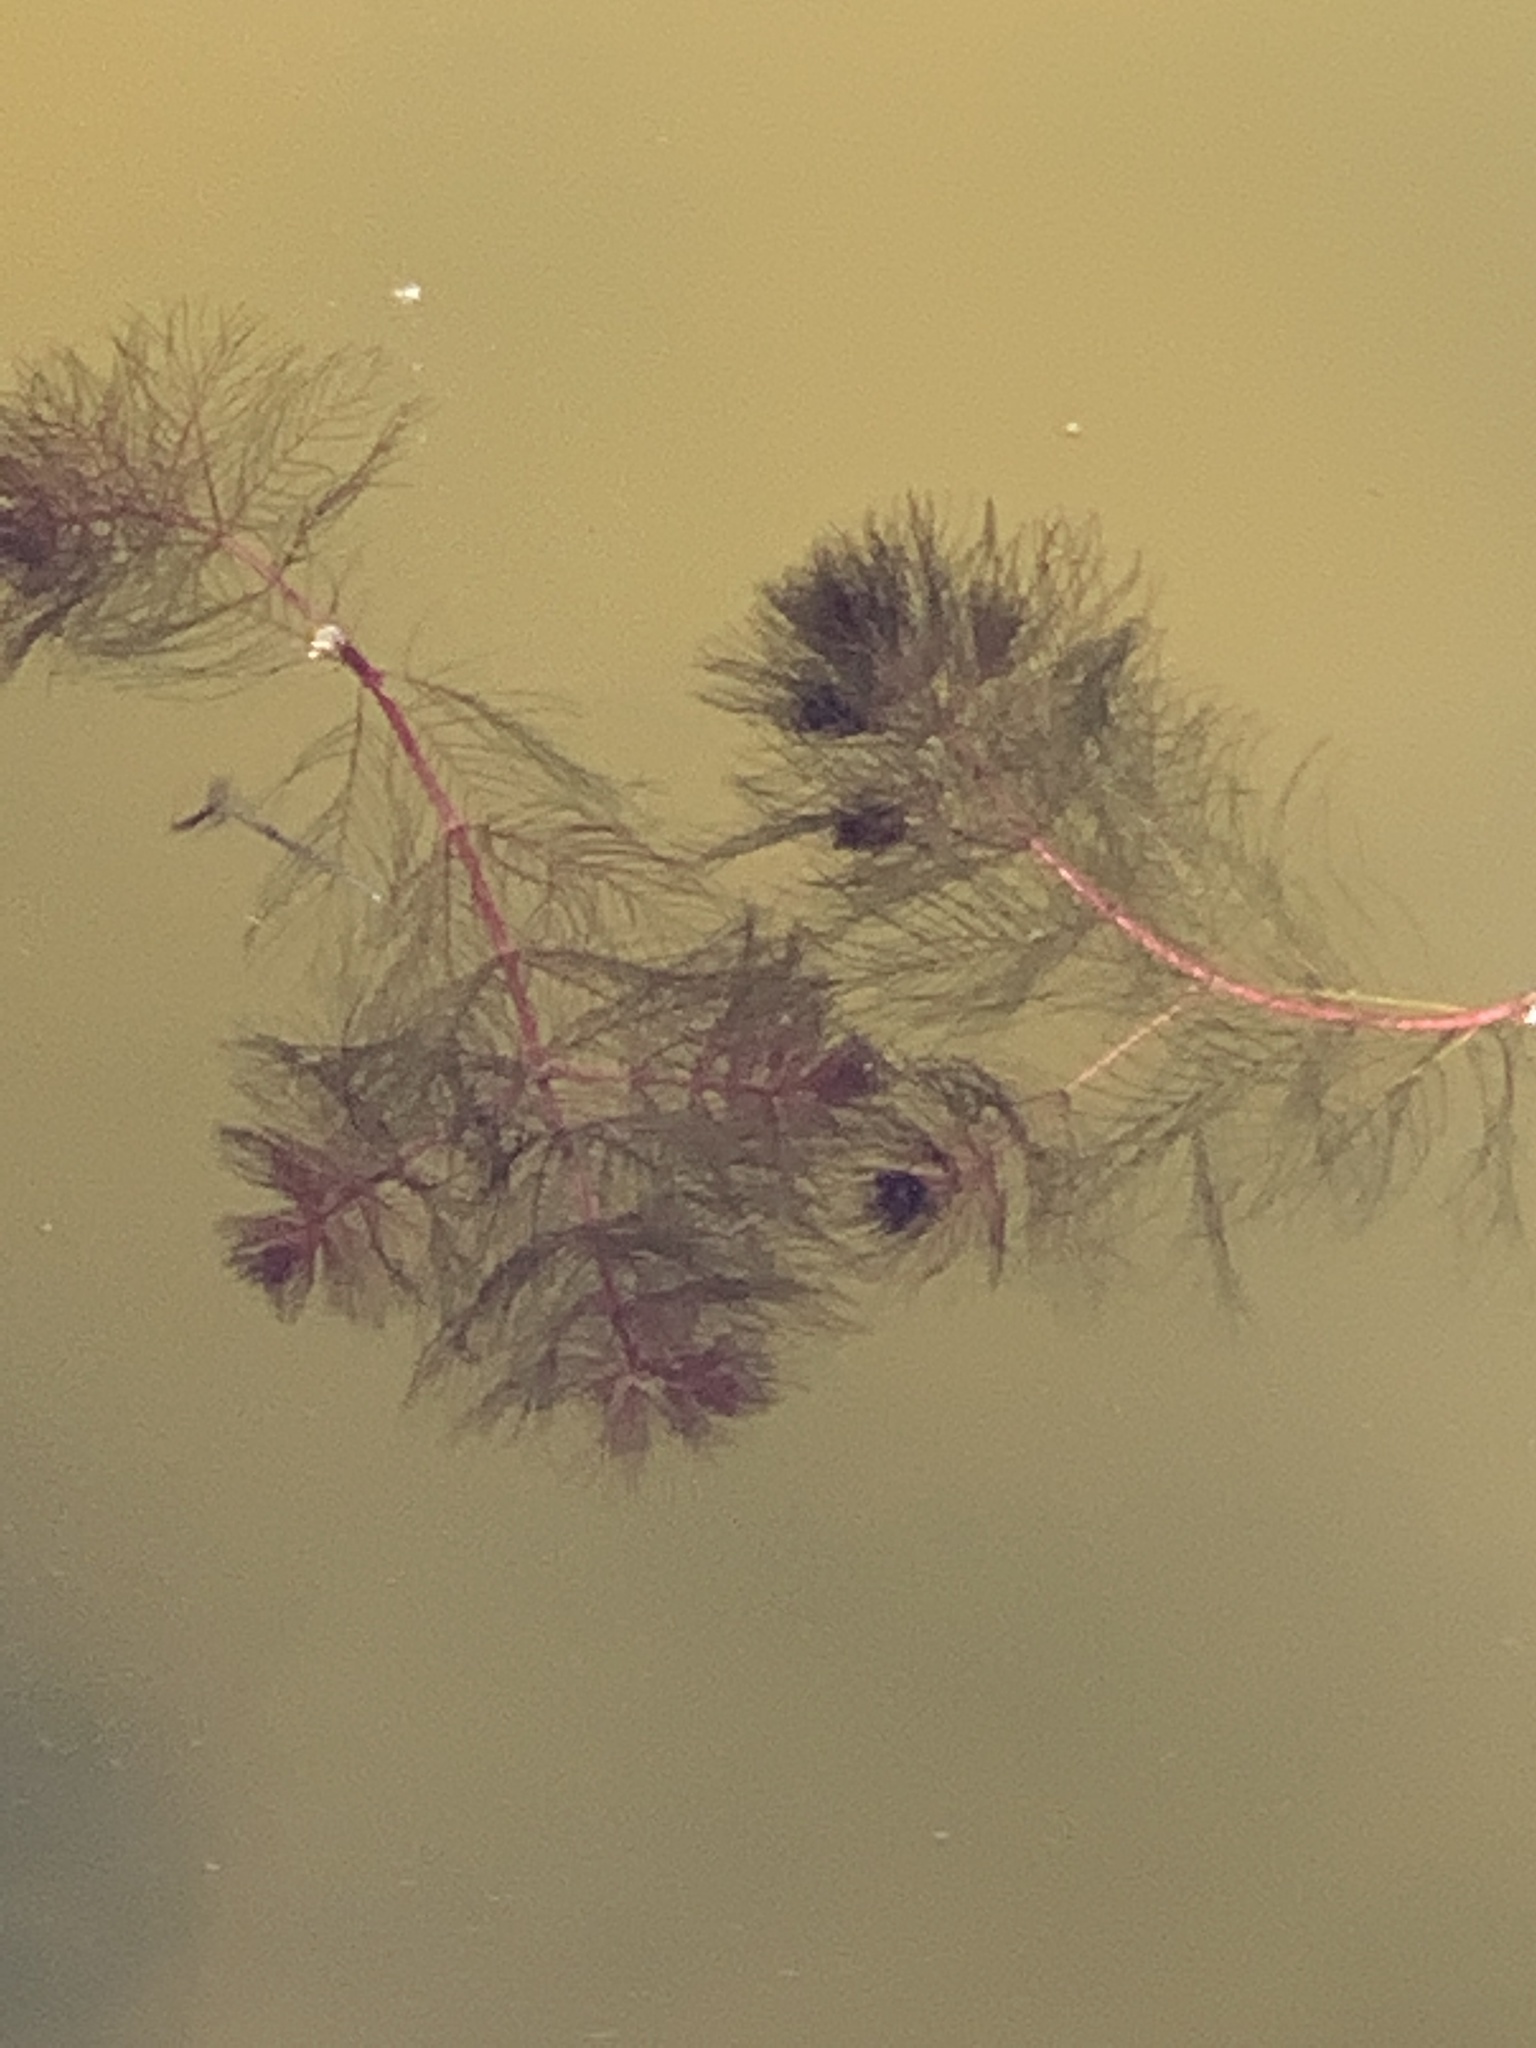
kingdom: Plantae
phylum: Tracheophyta
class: Magnoliopsida
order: Saxifragales
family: Haloragaceae
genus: Myriophyllum
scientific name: Myriophyllum spicatum
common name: Spiked water-milfoil
